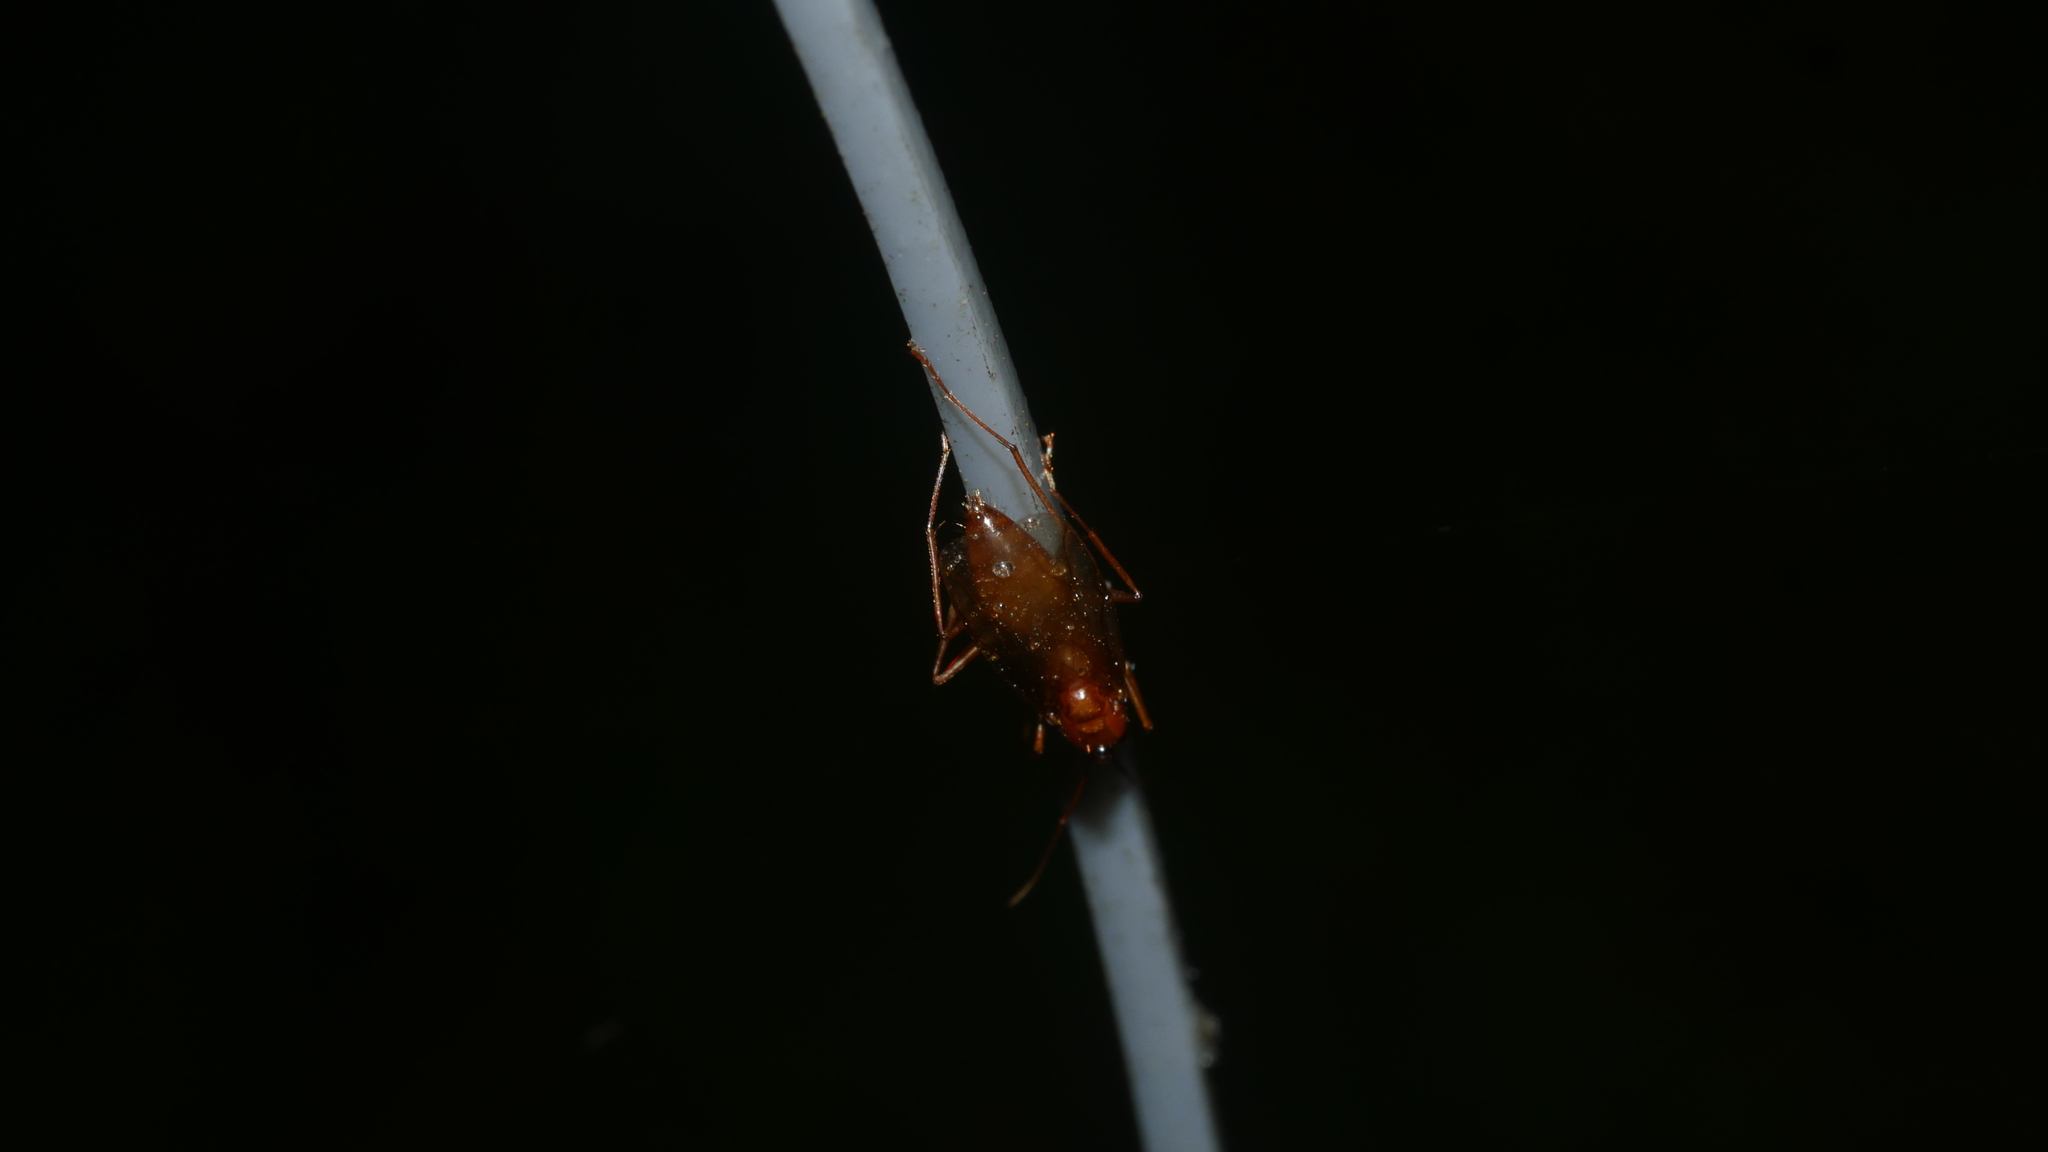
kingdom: Animalia
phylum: Arthropoda
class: Insecta
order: Hymenoptera
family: Formicidae
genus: Camponotus
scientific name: Camponotus castaneus
